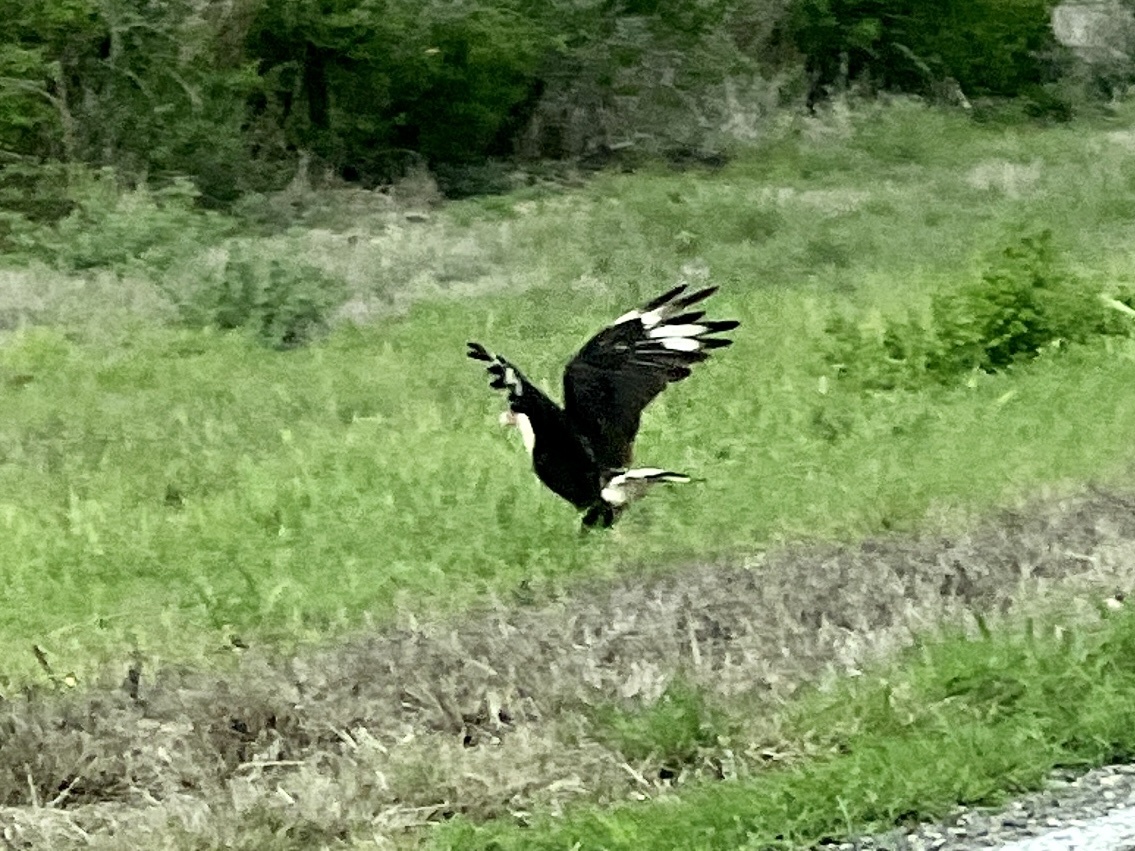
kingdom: Animalia
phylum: Chordata
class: Aves
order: Falconiformes
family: Falconidae
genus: Caracara
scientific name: Caracara plancus
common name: Southern caracara
